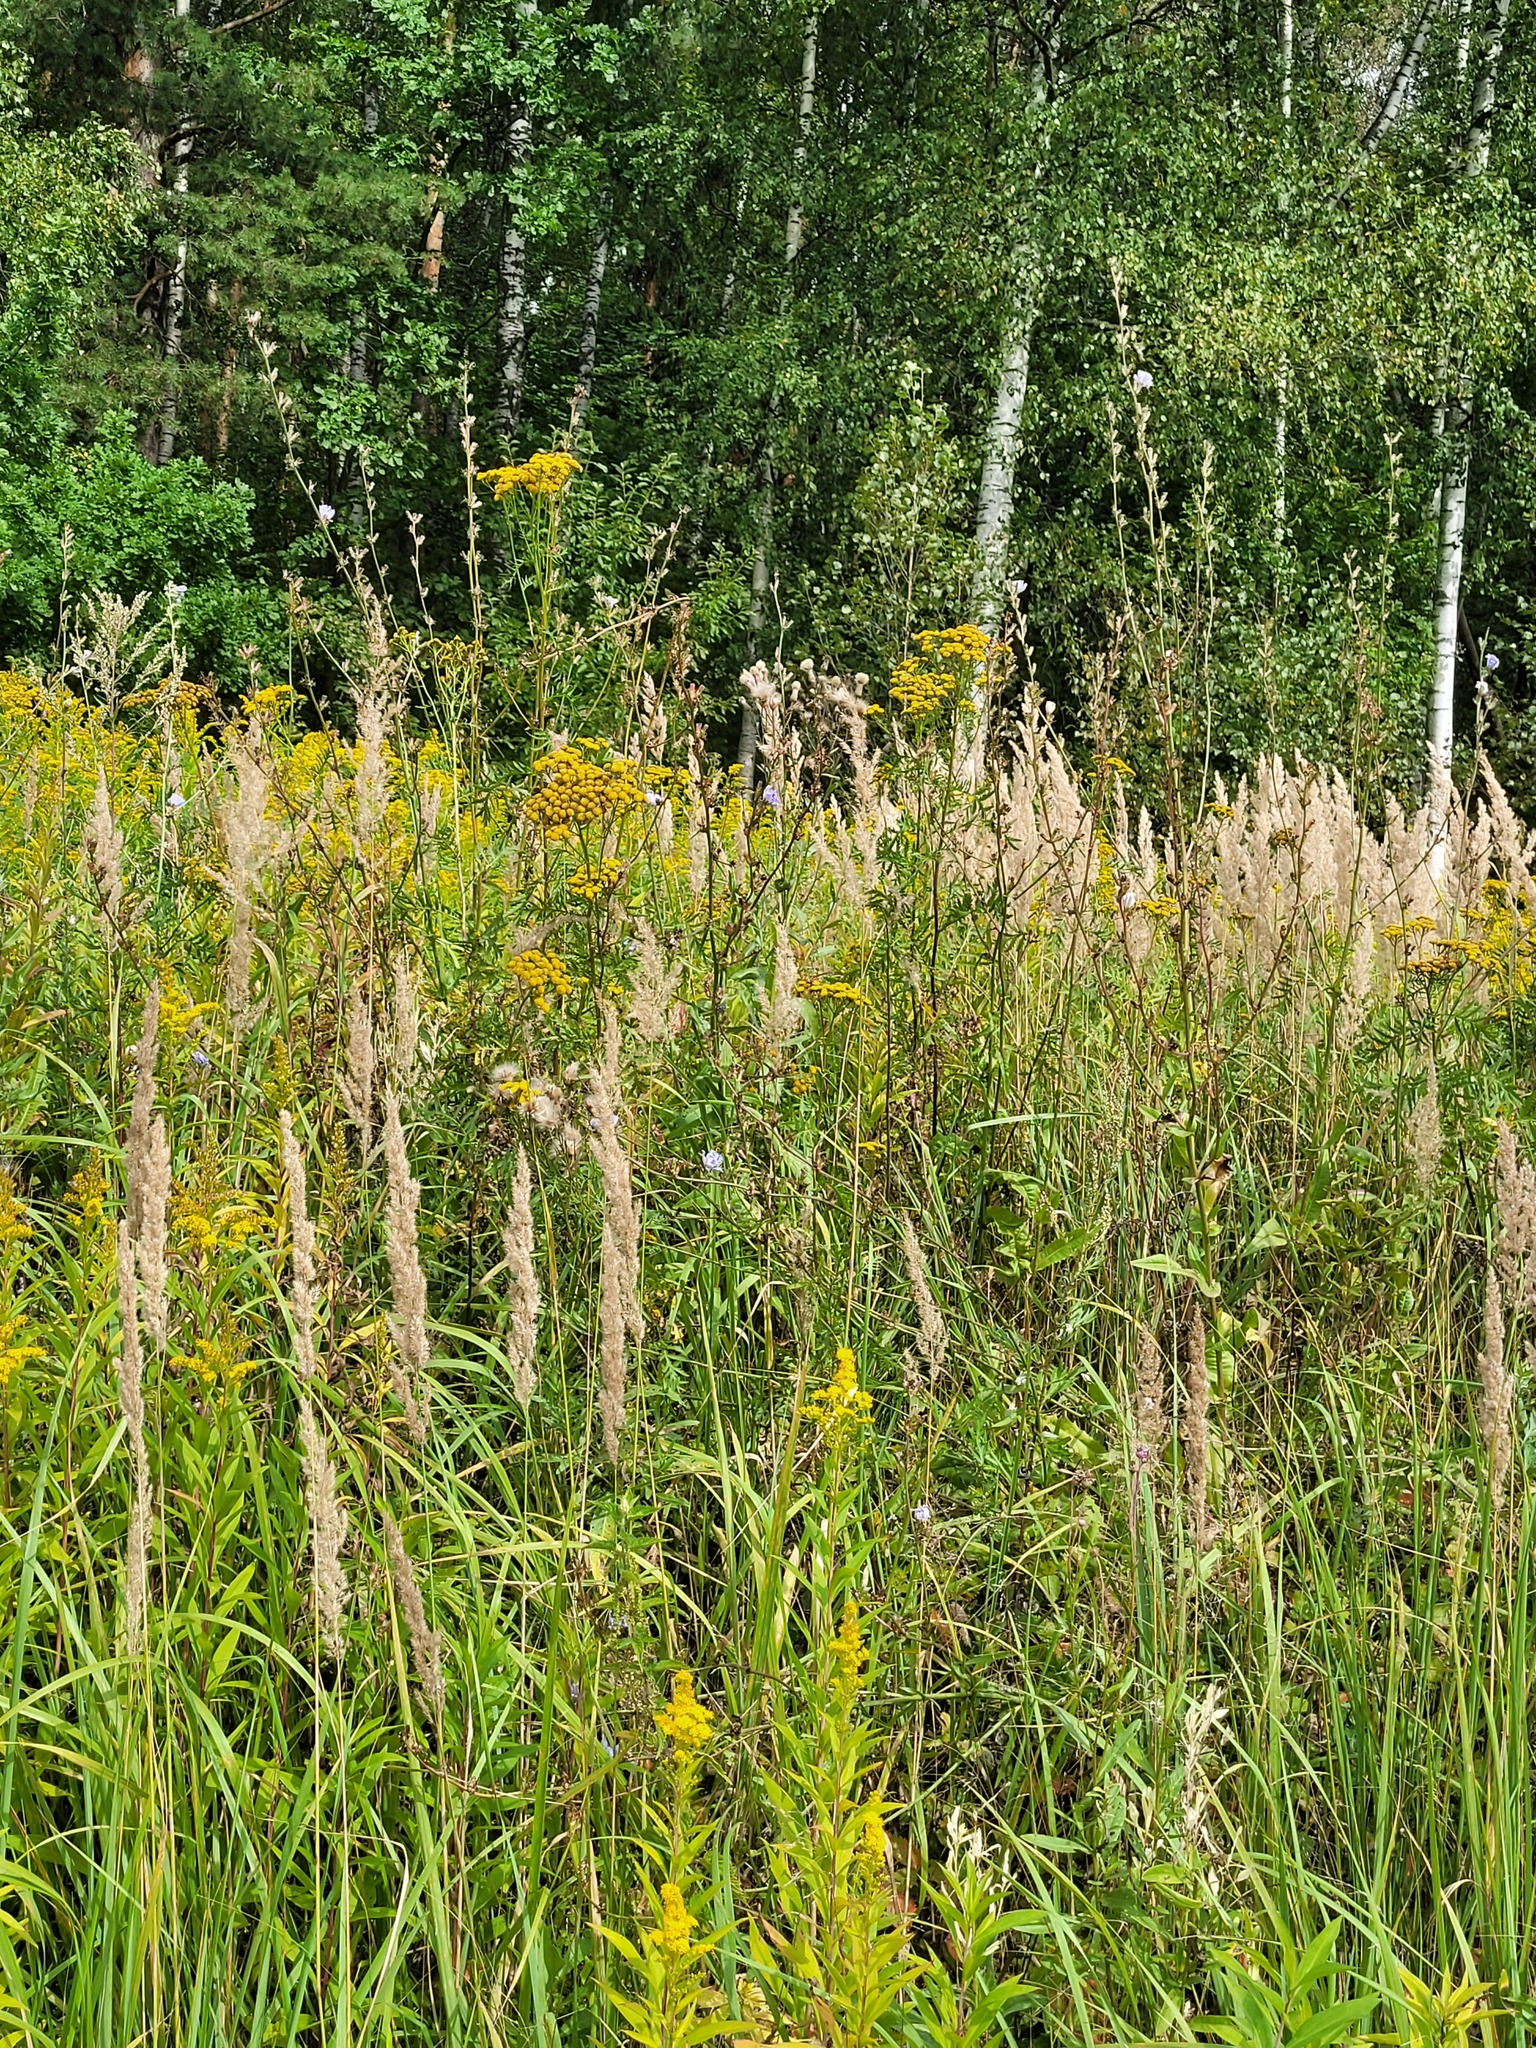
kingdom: Plantae
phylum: Tracheophyta
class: Magnoliopsida
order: Asterales
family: Asteraceae
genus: Cichorium
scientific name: Cichorium intybus
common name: Chicory
